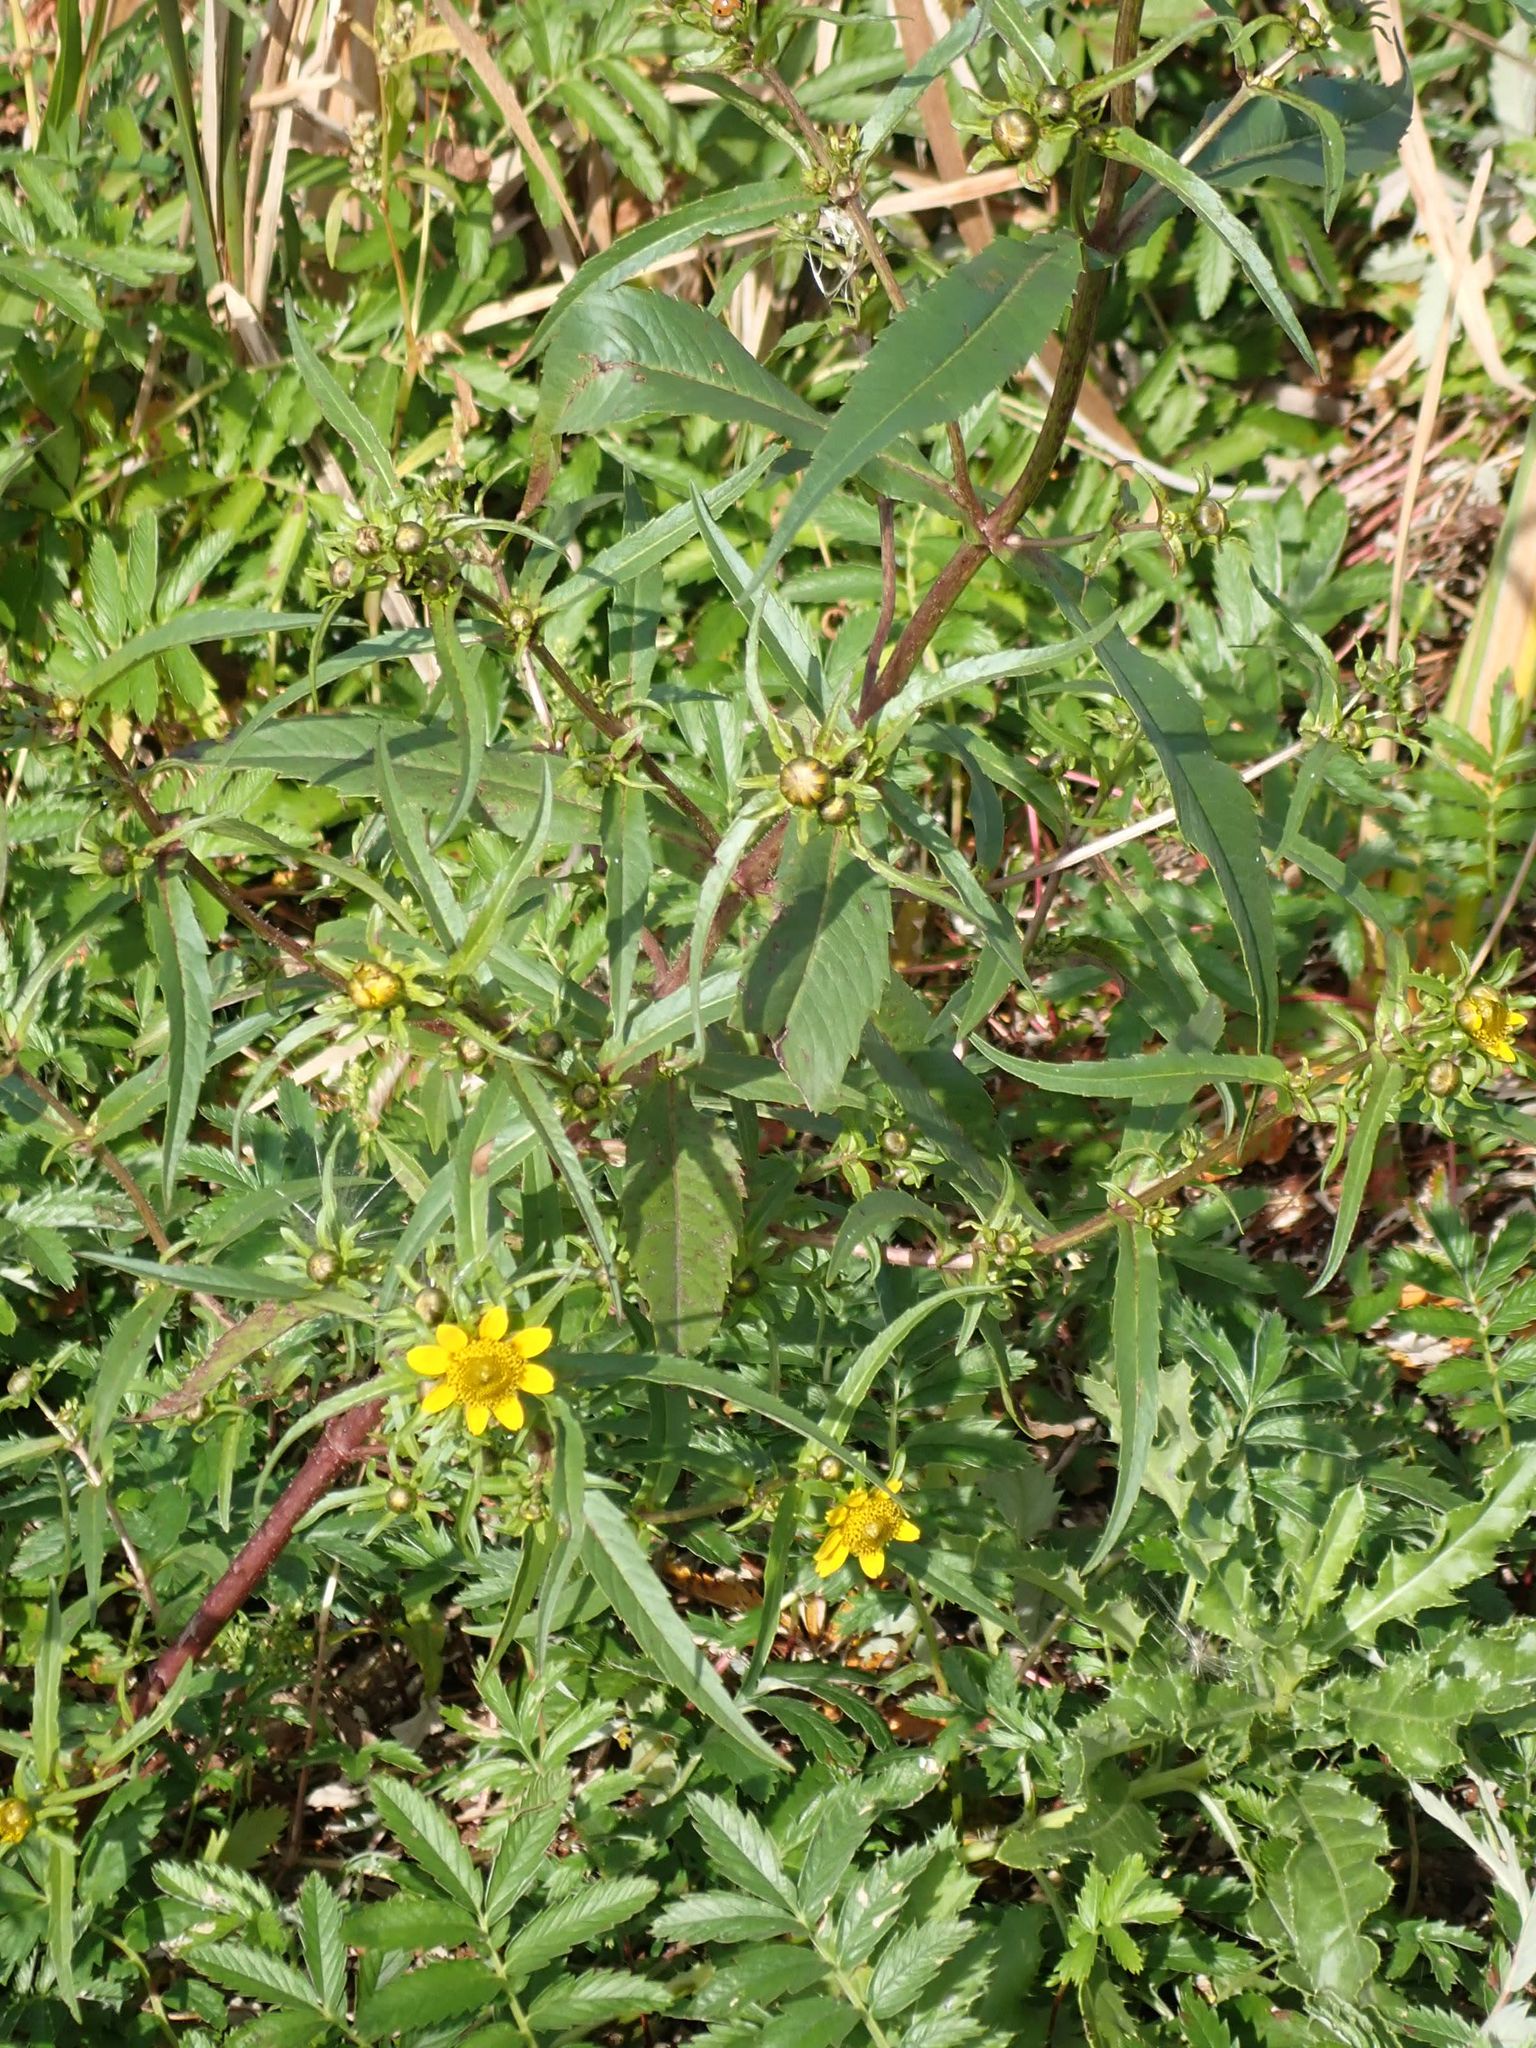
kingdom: Plantae
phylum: Tracheophyta
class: Magnoliopsida
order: Asterales
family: Asteraceae
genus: Bidens
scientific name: Bidens cernua
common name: Nodding bur-marigold
